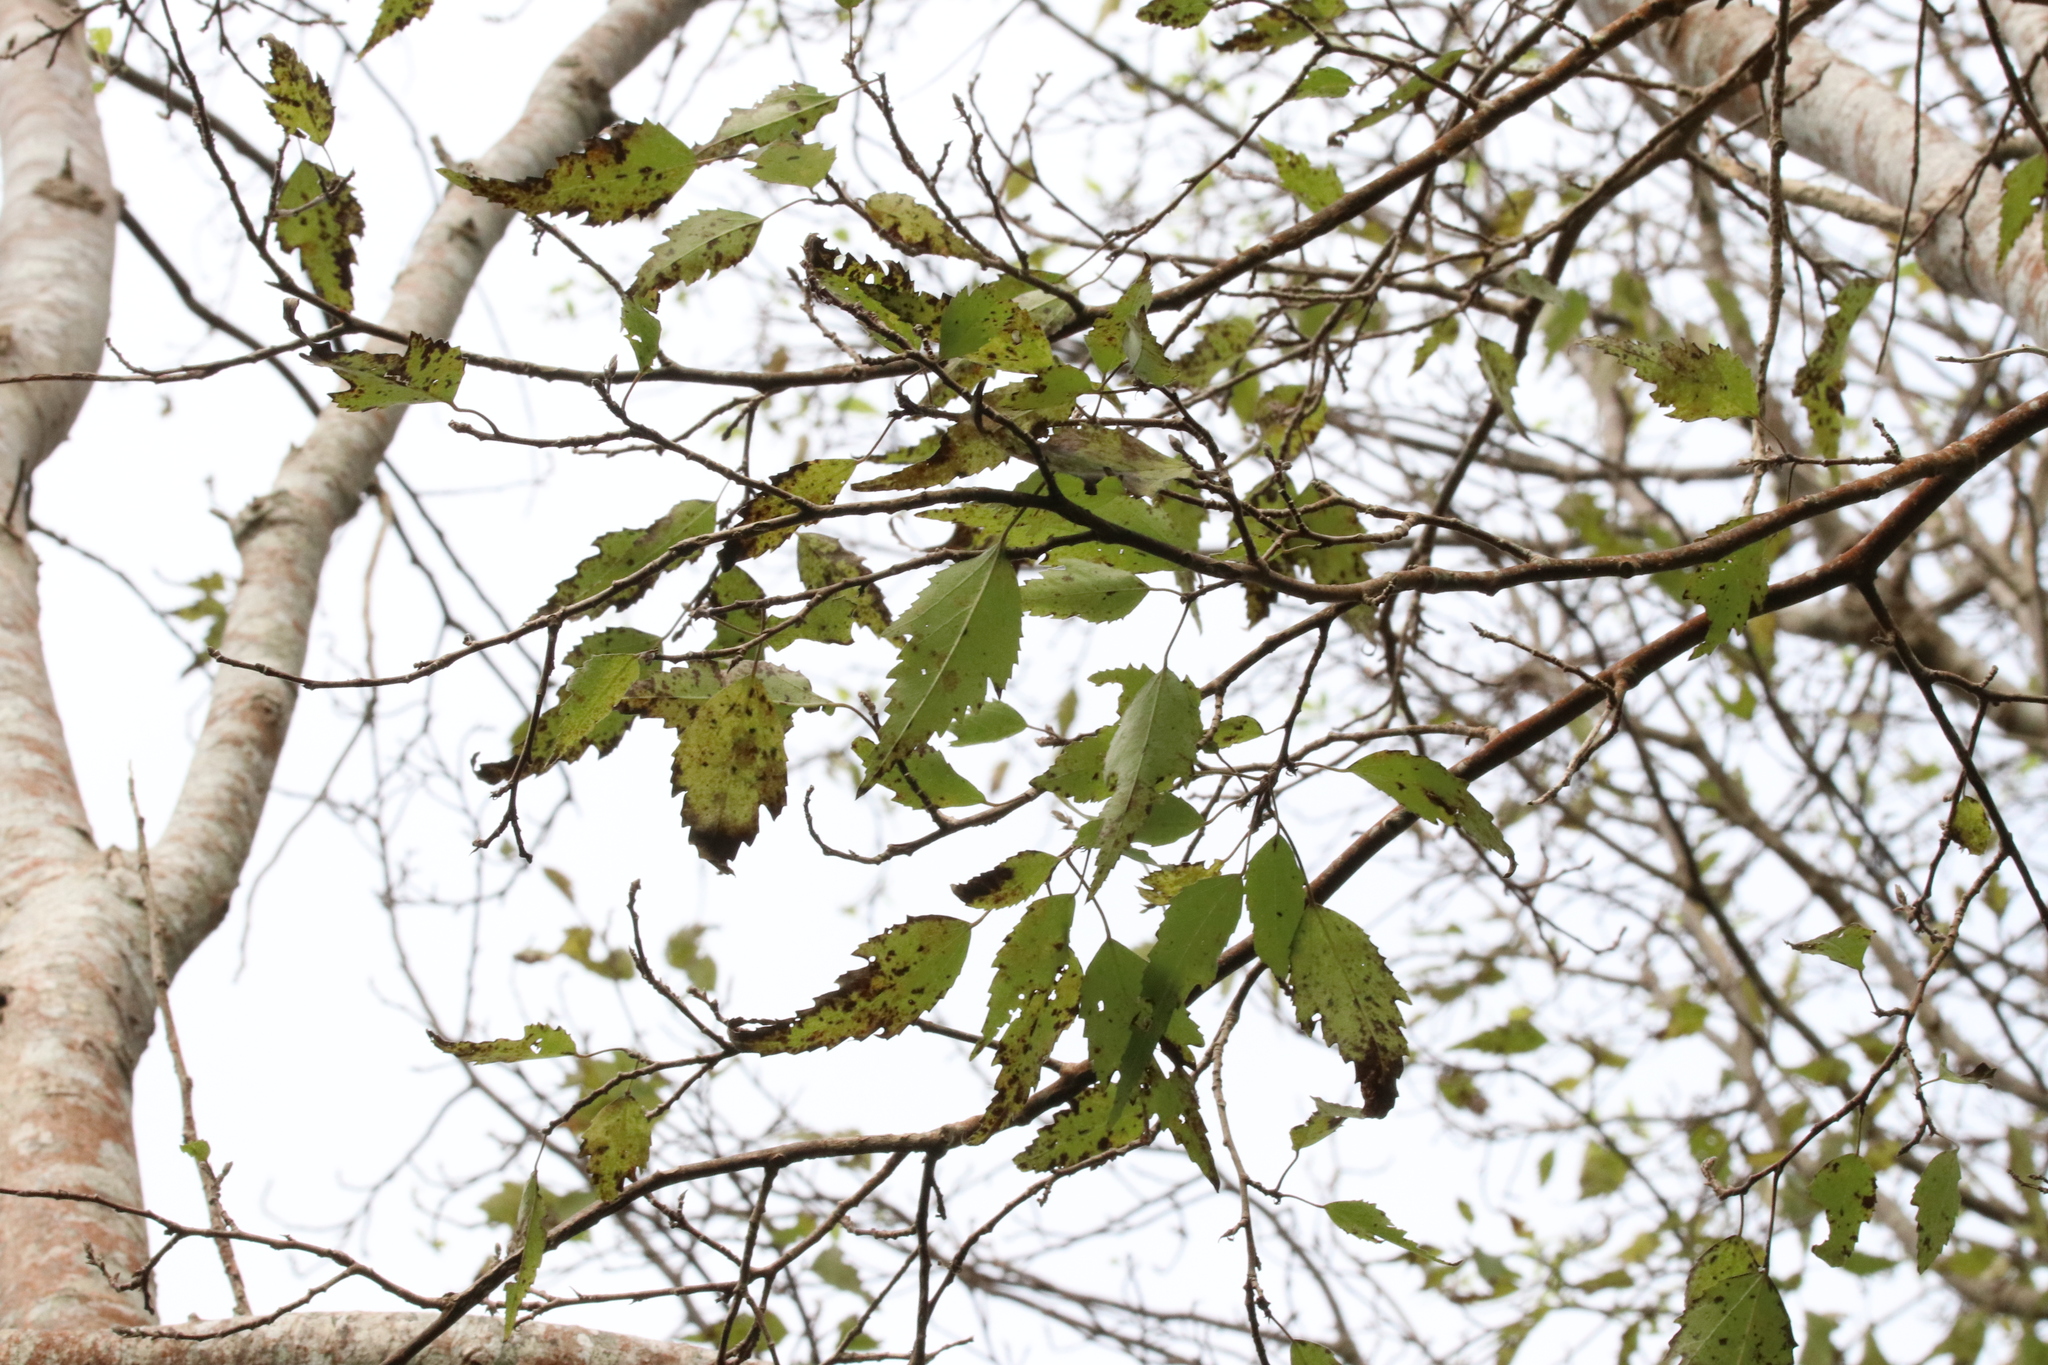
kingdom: Plantae
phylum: Tracheophyta
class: Magnoliopsida
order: Malvales
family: Malvaceae
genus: Plagianthus
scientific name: Plagianthus regius
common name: Manatu
